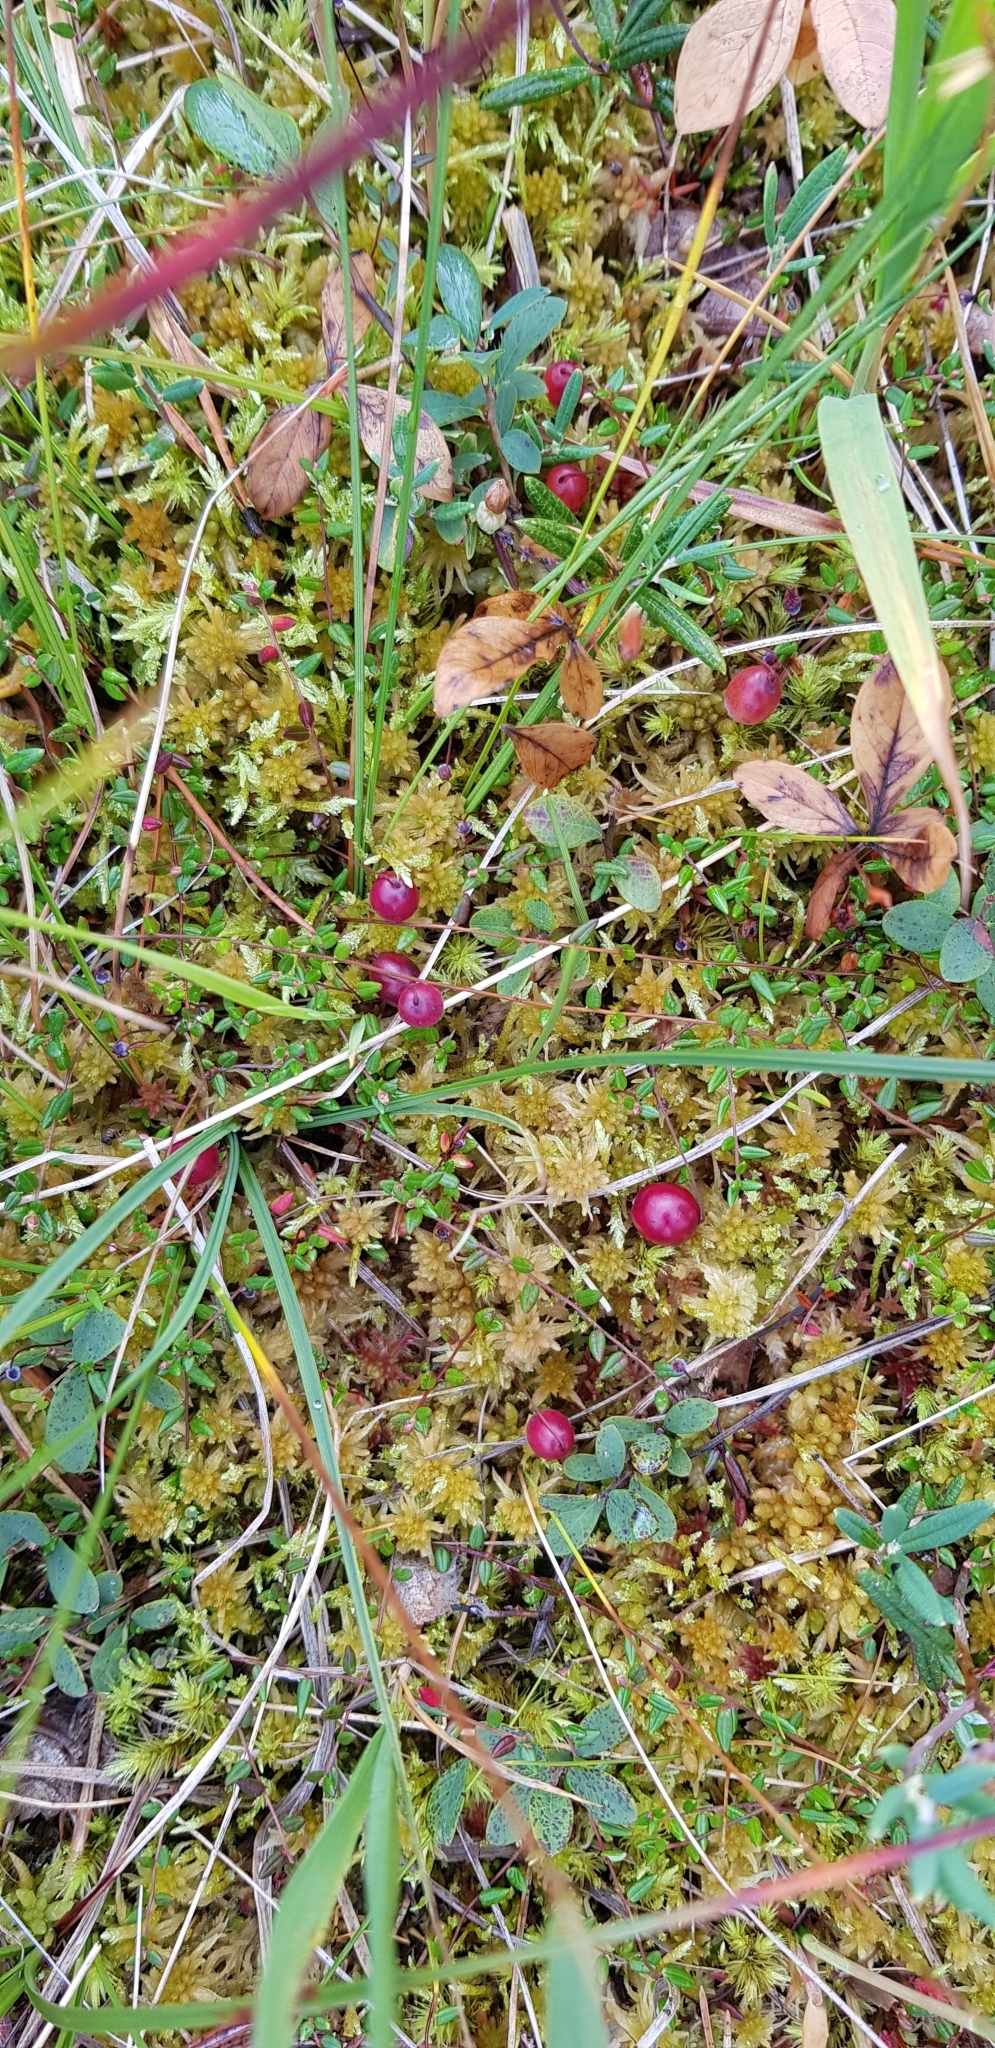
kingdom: Plantae
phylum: Tracheophyta
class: Magnoliopsida
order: Ericales
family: Ericaceae
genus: Vaccinium
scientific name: Vaccinium oxycoccos
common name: Cranberry
